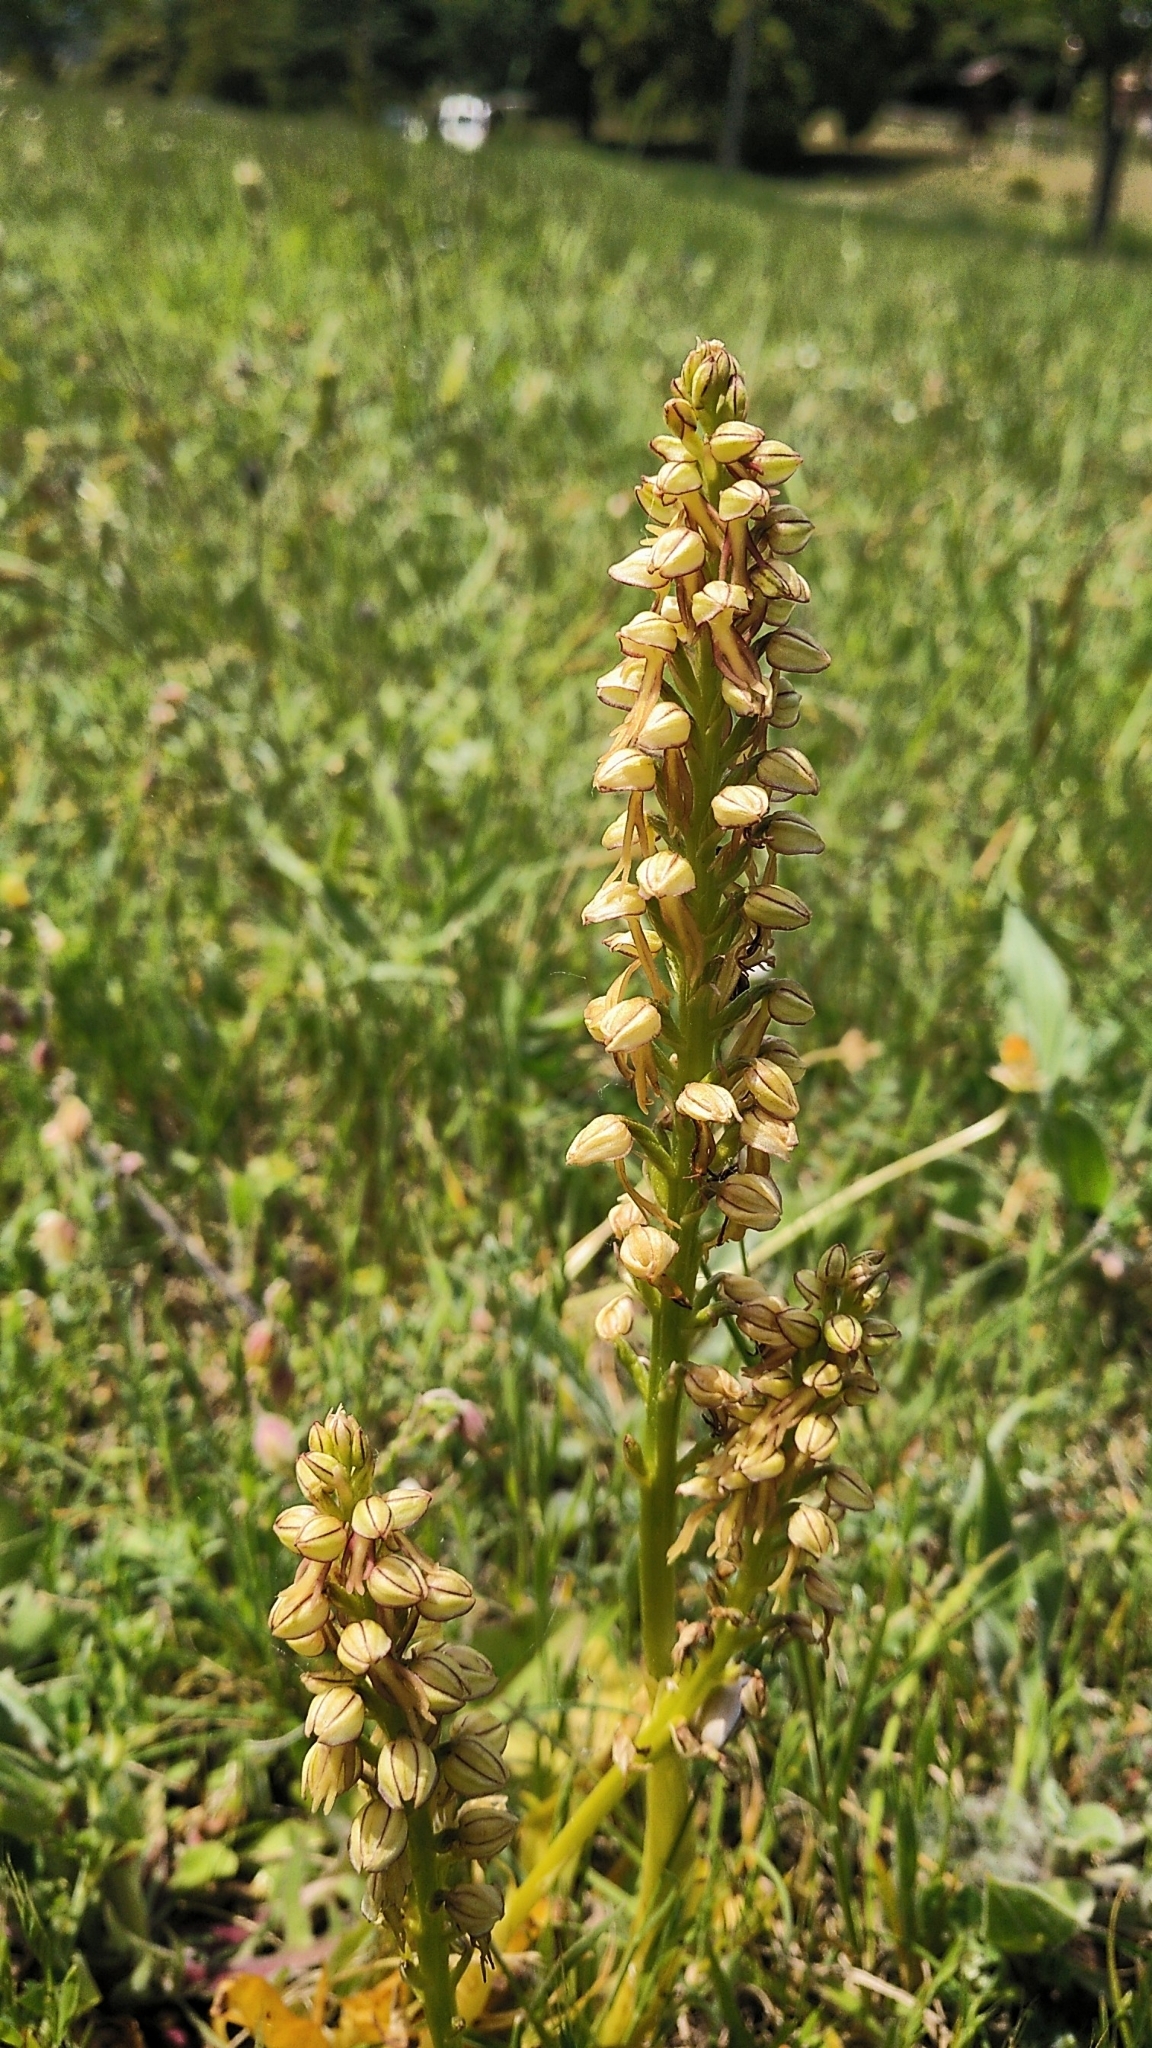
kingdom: Plantae
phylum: Tracheophyta
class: Liliopsida
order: Asparagales
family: Orchidaceae
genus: Orchis
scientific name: Orchis anthropophora
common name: Man orchid
